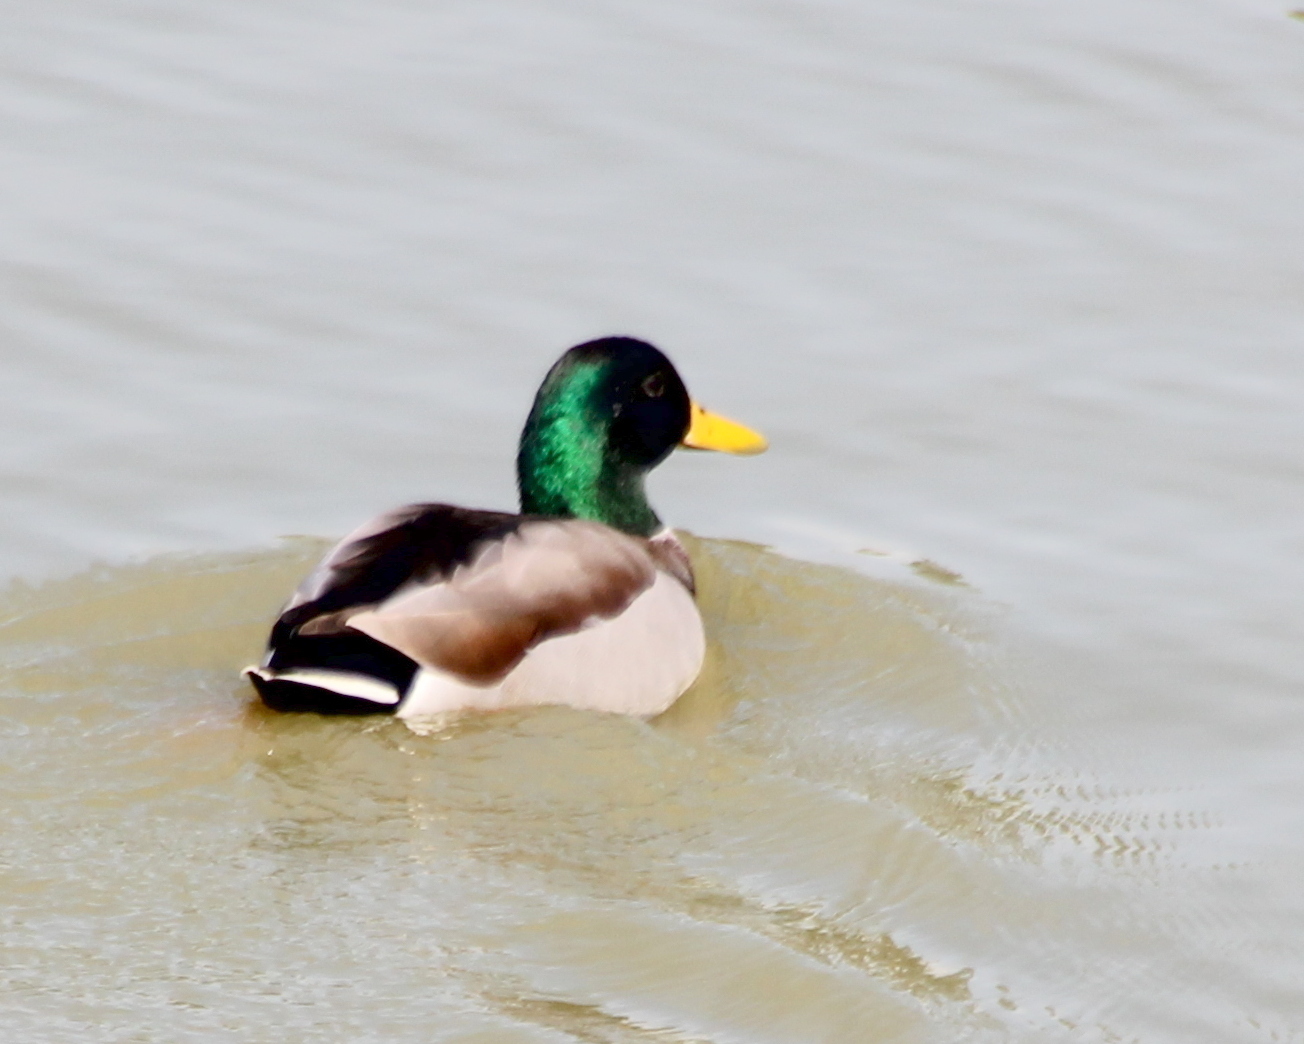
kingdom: Animalia
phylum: Chordata
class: Aves
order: Anseriformes
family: Anatidae
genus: Anas
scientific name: Anas platyrhynchos
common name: Mallard
